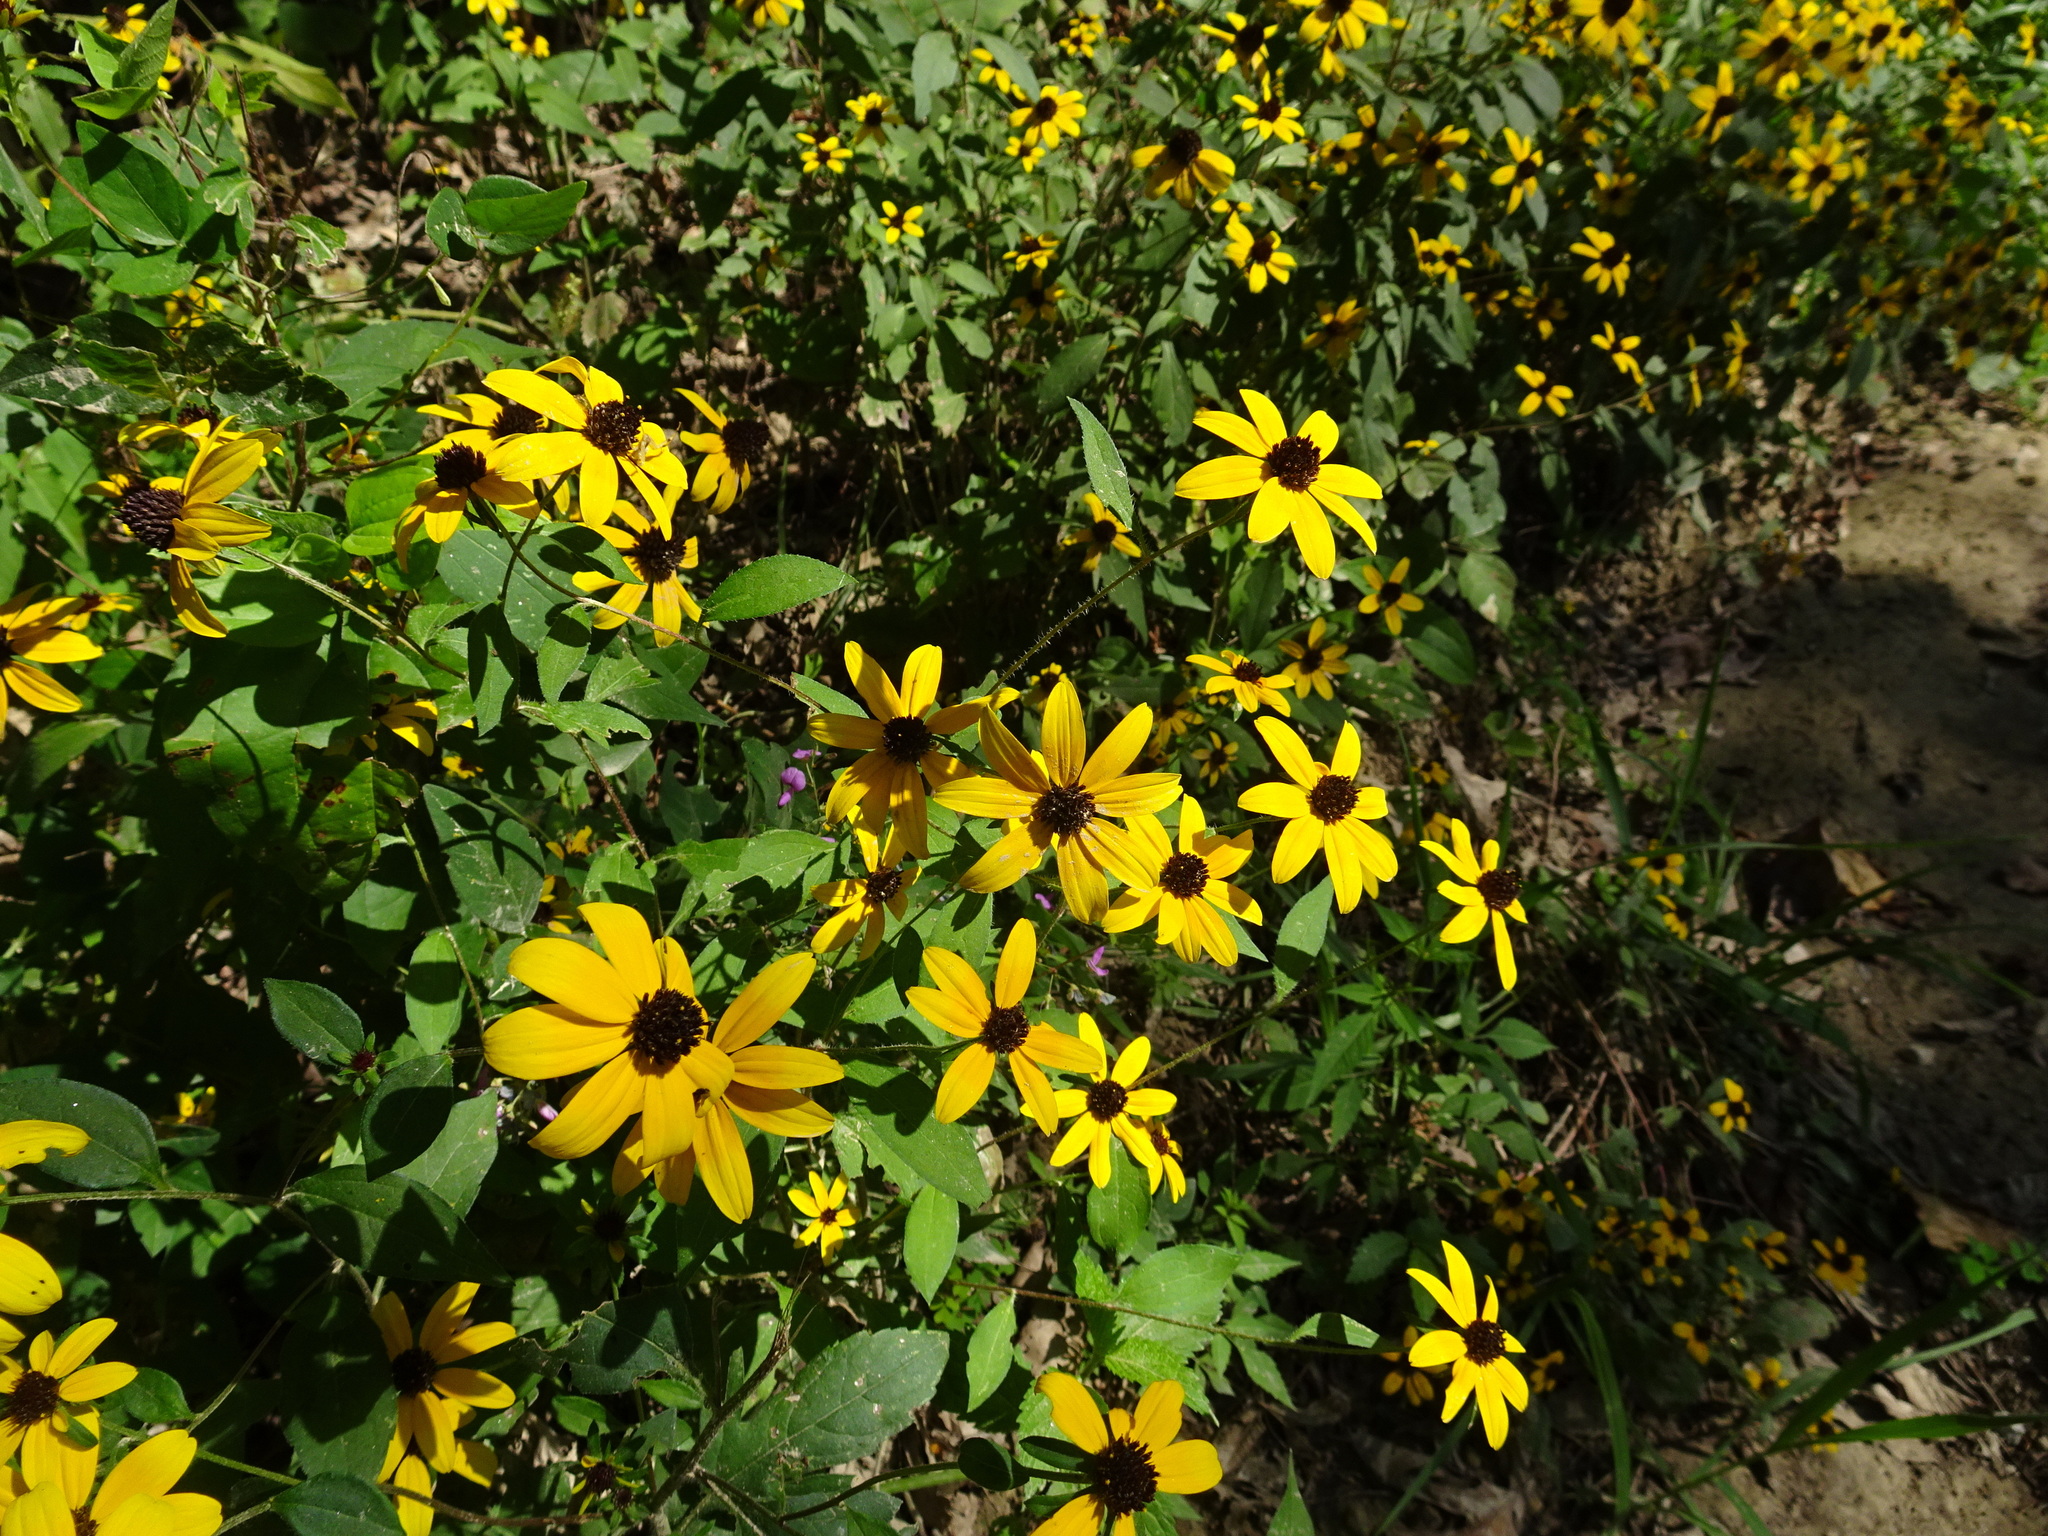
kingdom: Plantae
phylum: Tracheophyta
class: Magnoliopsida
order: Asterales
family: Asteraceae
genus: Rudbeckia
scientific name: Rudbeckia triloba
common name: Thin-leaved coneflower
